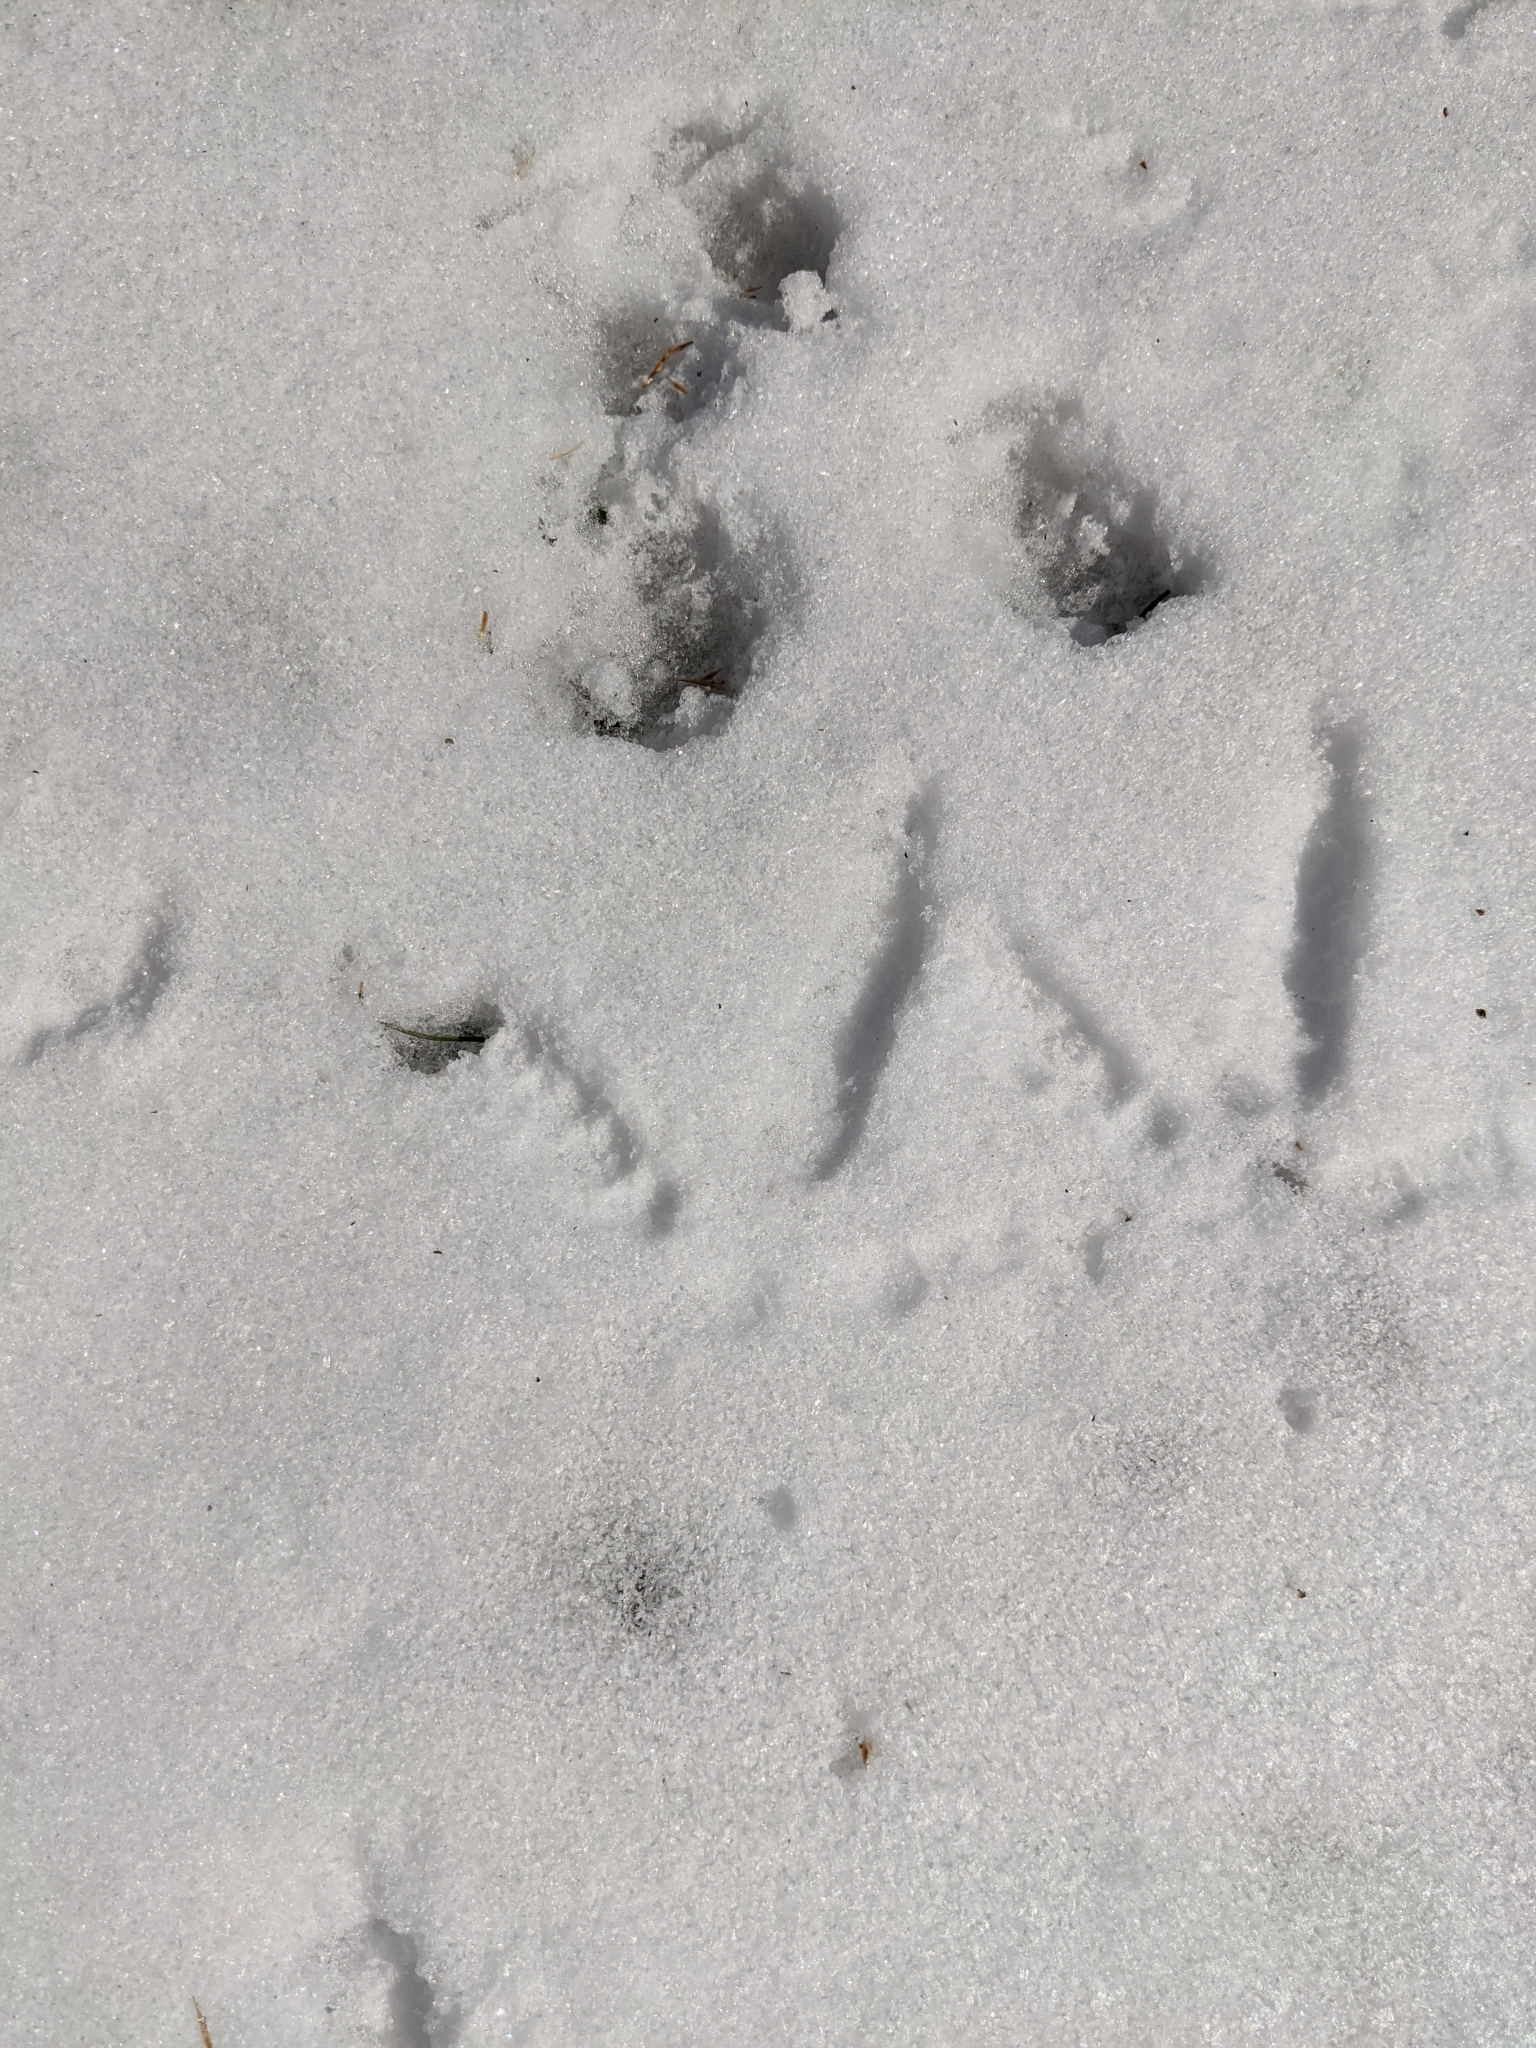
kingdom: Animalia
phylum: Chordata
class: Aves
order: Galliformes
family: Phasianidae
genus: Bonasa
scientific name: Bonasa umbellus
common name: Ruffed grouse
